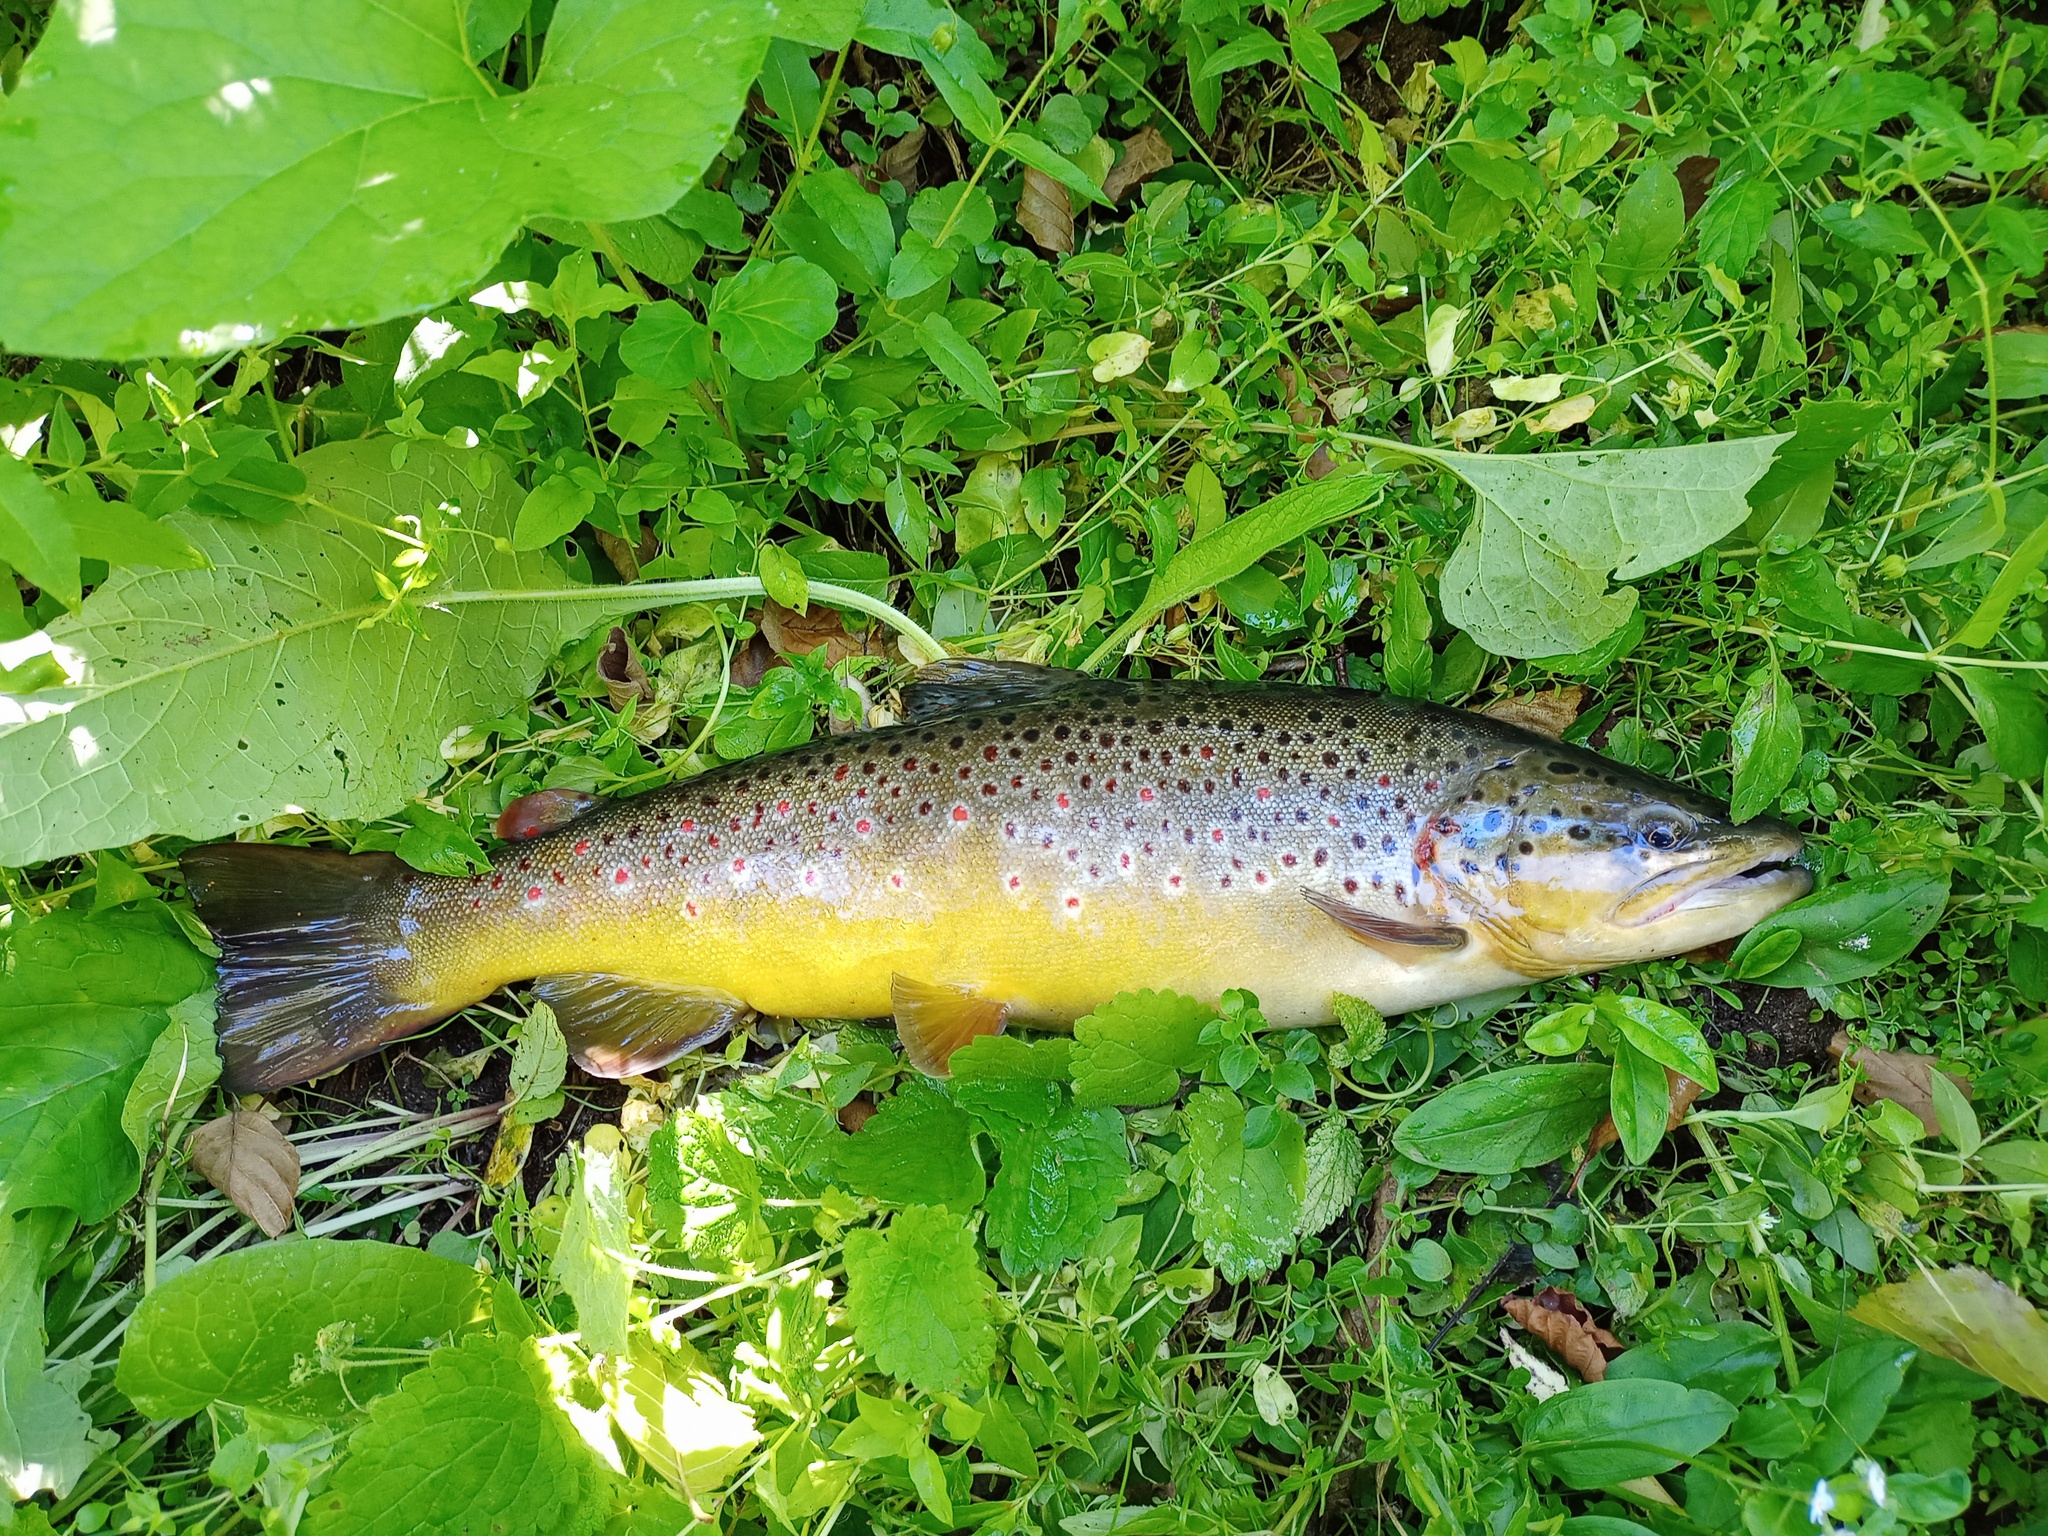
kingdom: Animalia
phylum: Chordata
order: Salmoniformes
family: Salmonidae
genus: Salmo
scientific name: Salmo trutta
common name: Brown trout
